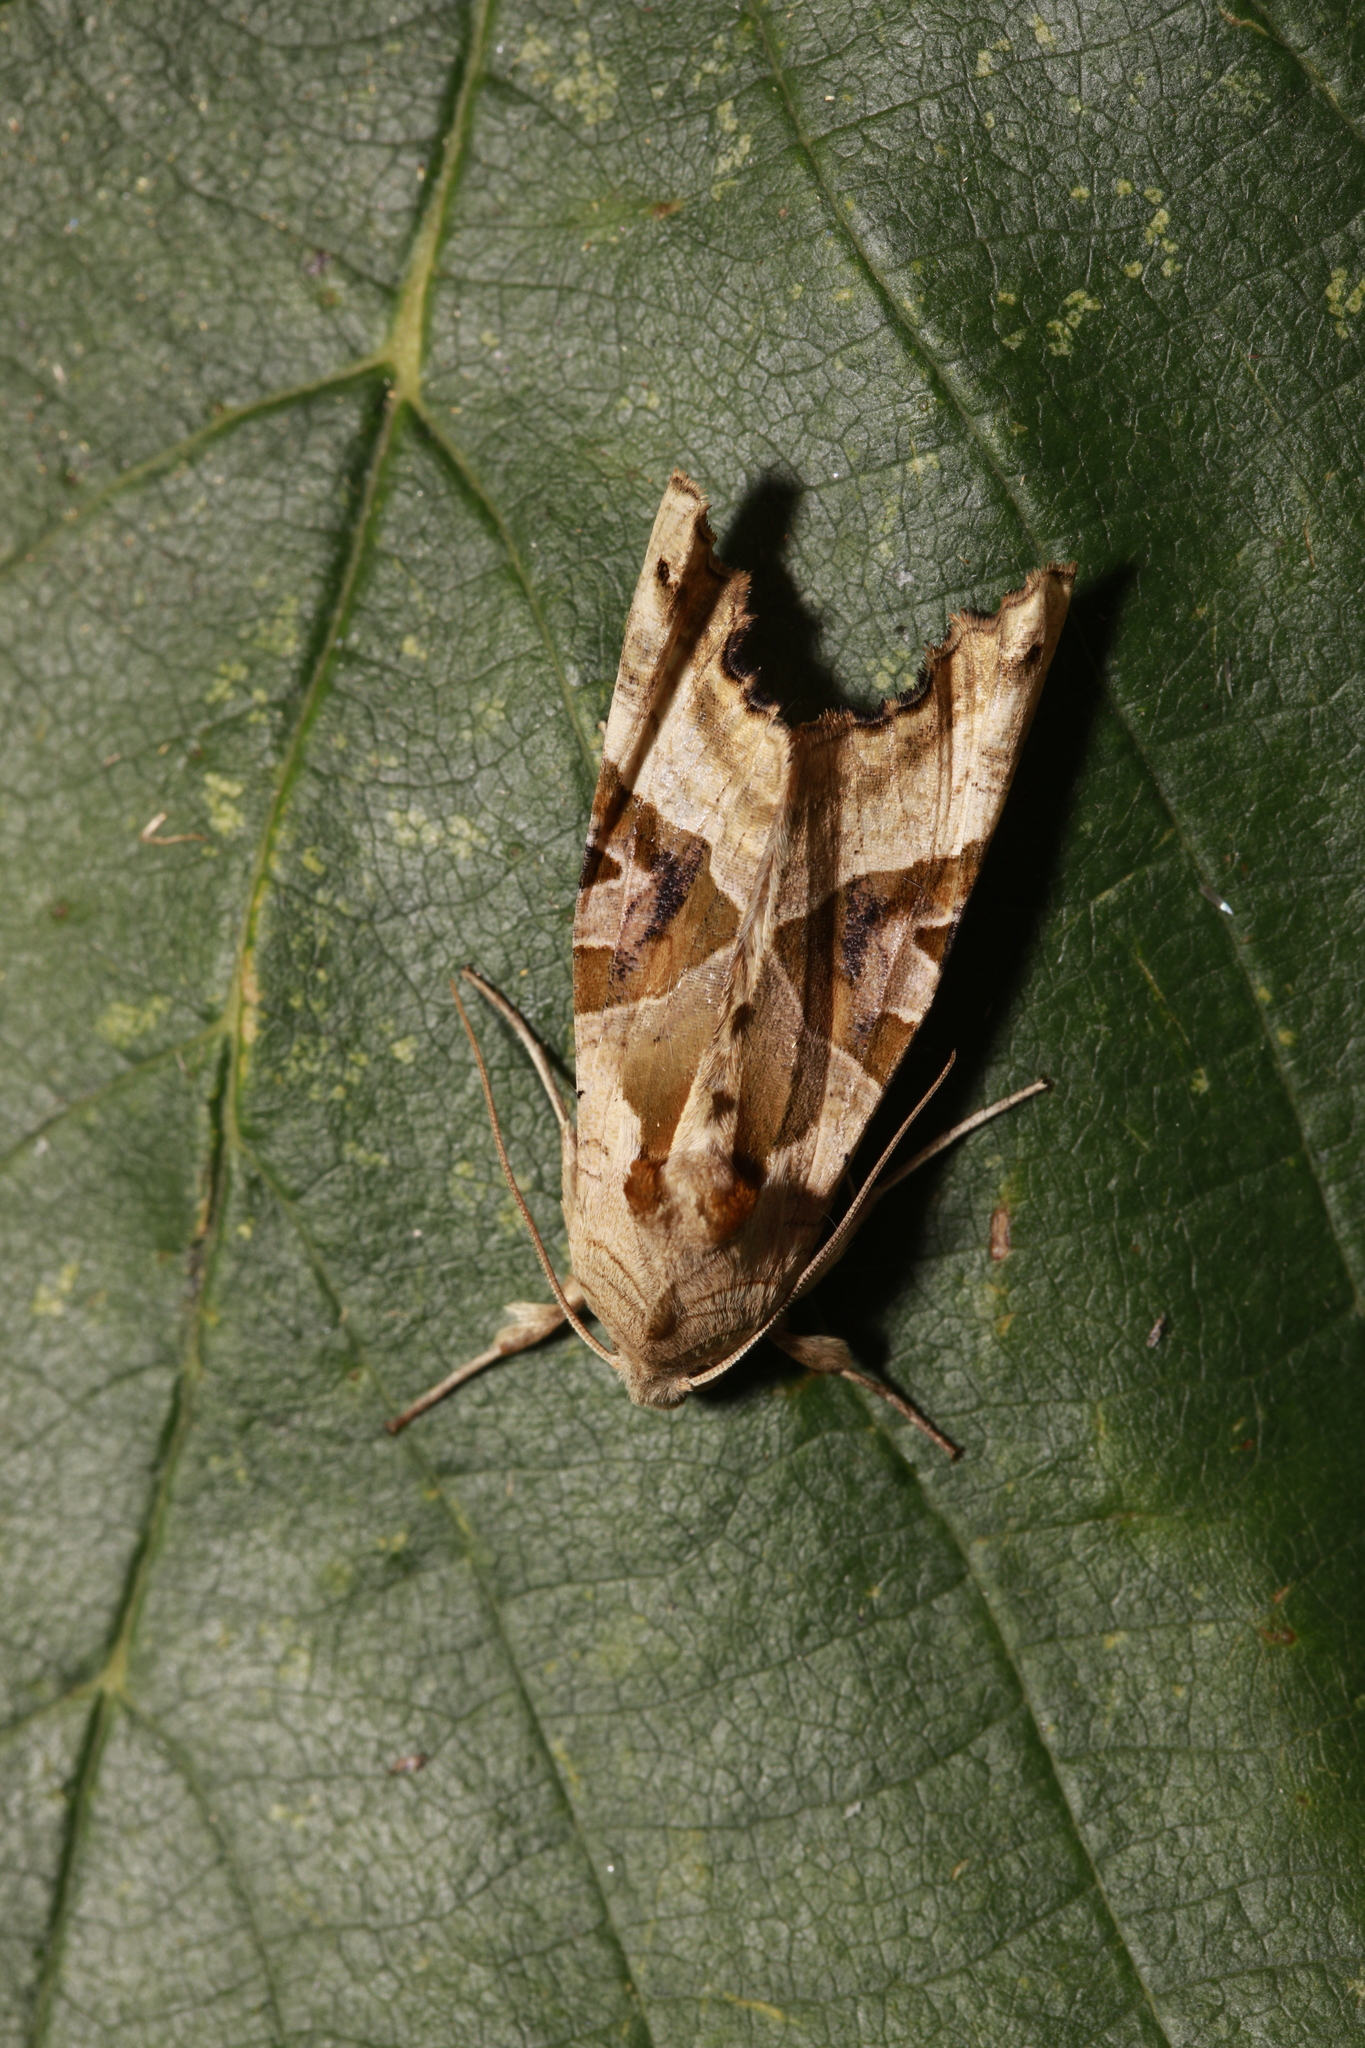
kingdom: Animalia
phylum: Arthropoda
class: Insecta
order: Lepidoptera
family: Noctuidae
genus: Phlogophora
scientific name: Phlogophora meticulosa
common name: Angle shades
